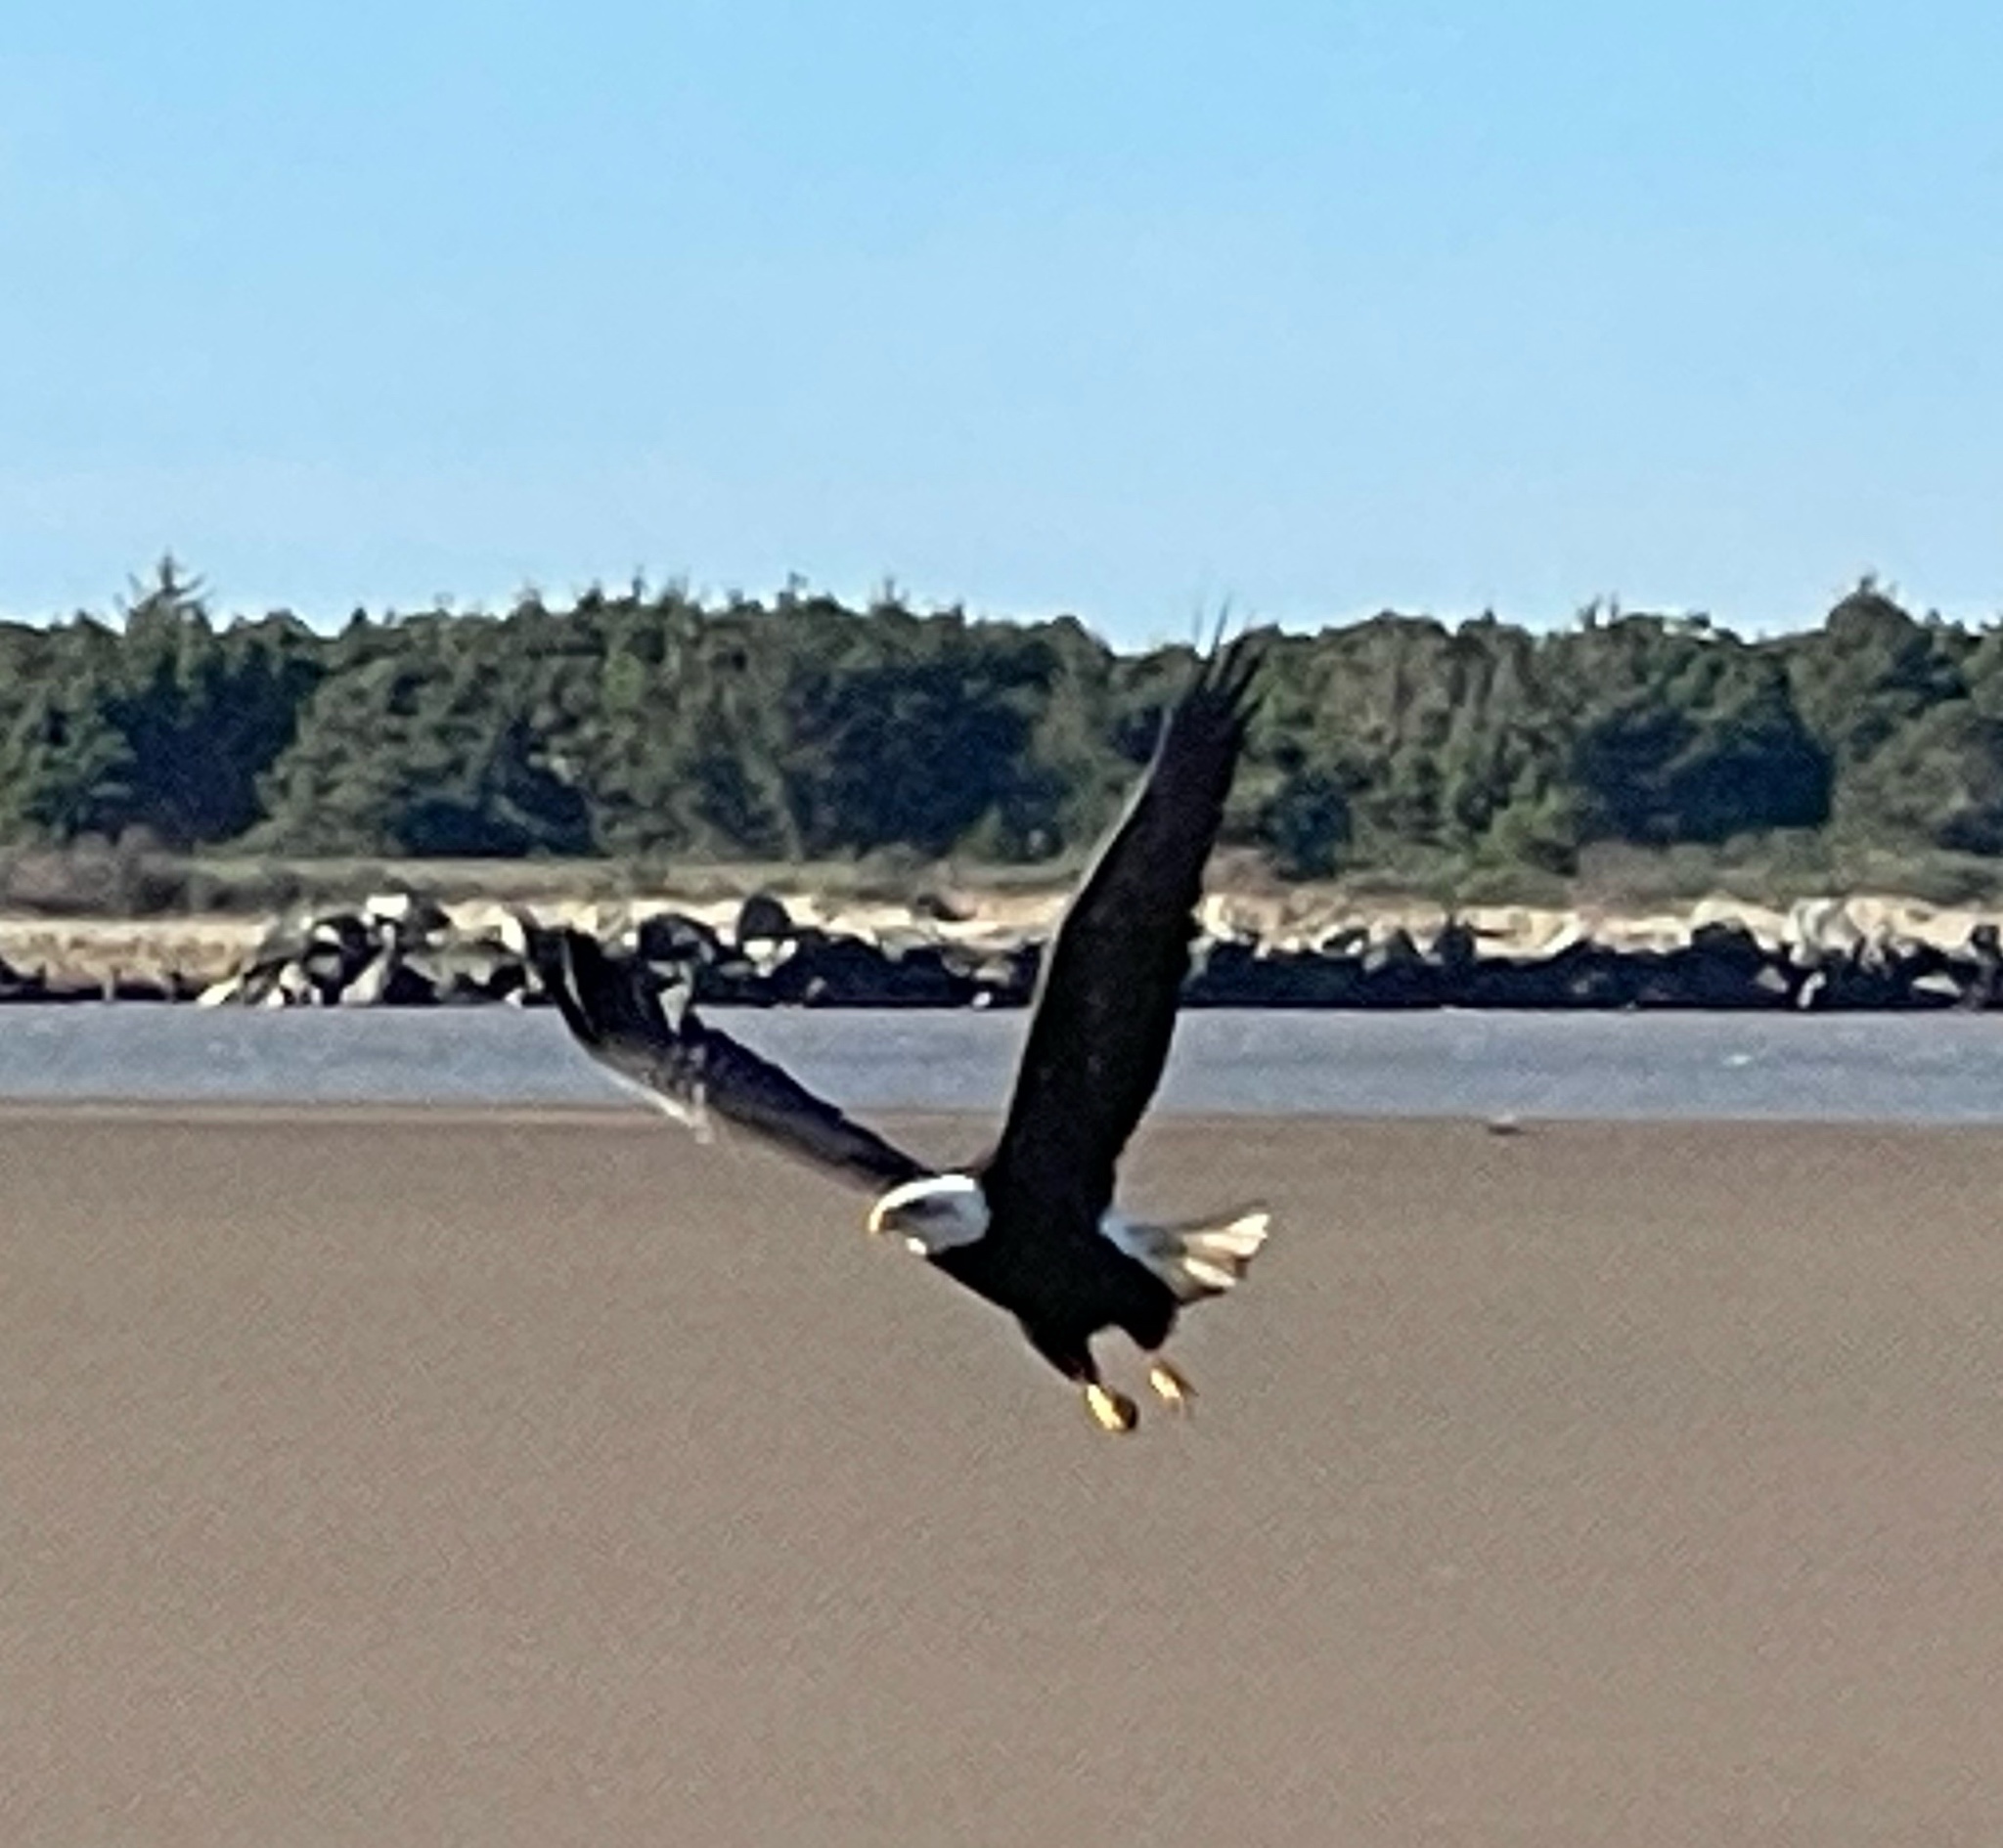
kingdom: Animalia
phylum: Chordata
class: Aves
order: Accipitriformes
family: Accipitridae
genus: Haliaeetus
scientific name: Haliaeetus leucocephalus
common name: Bald eagle
